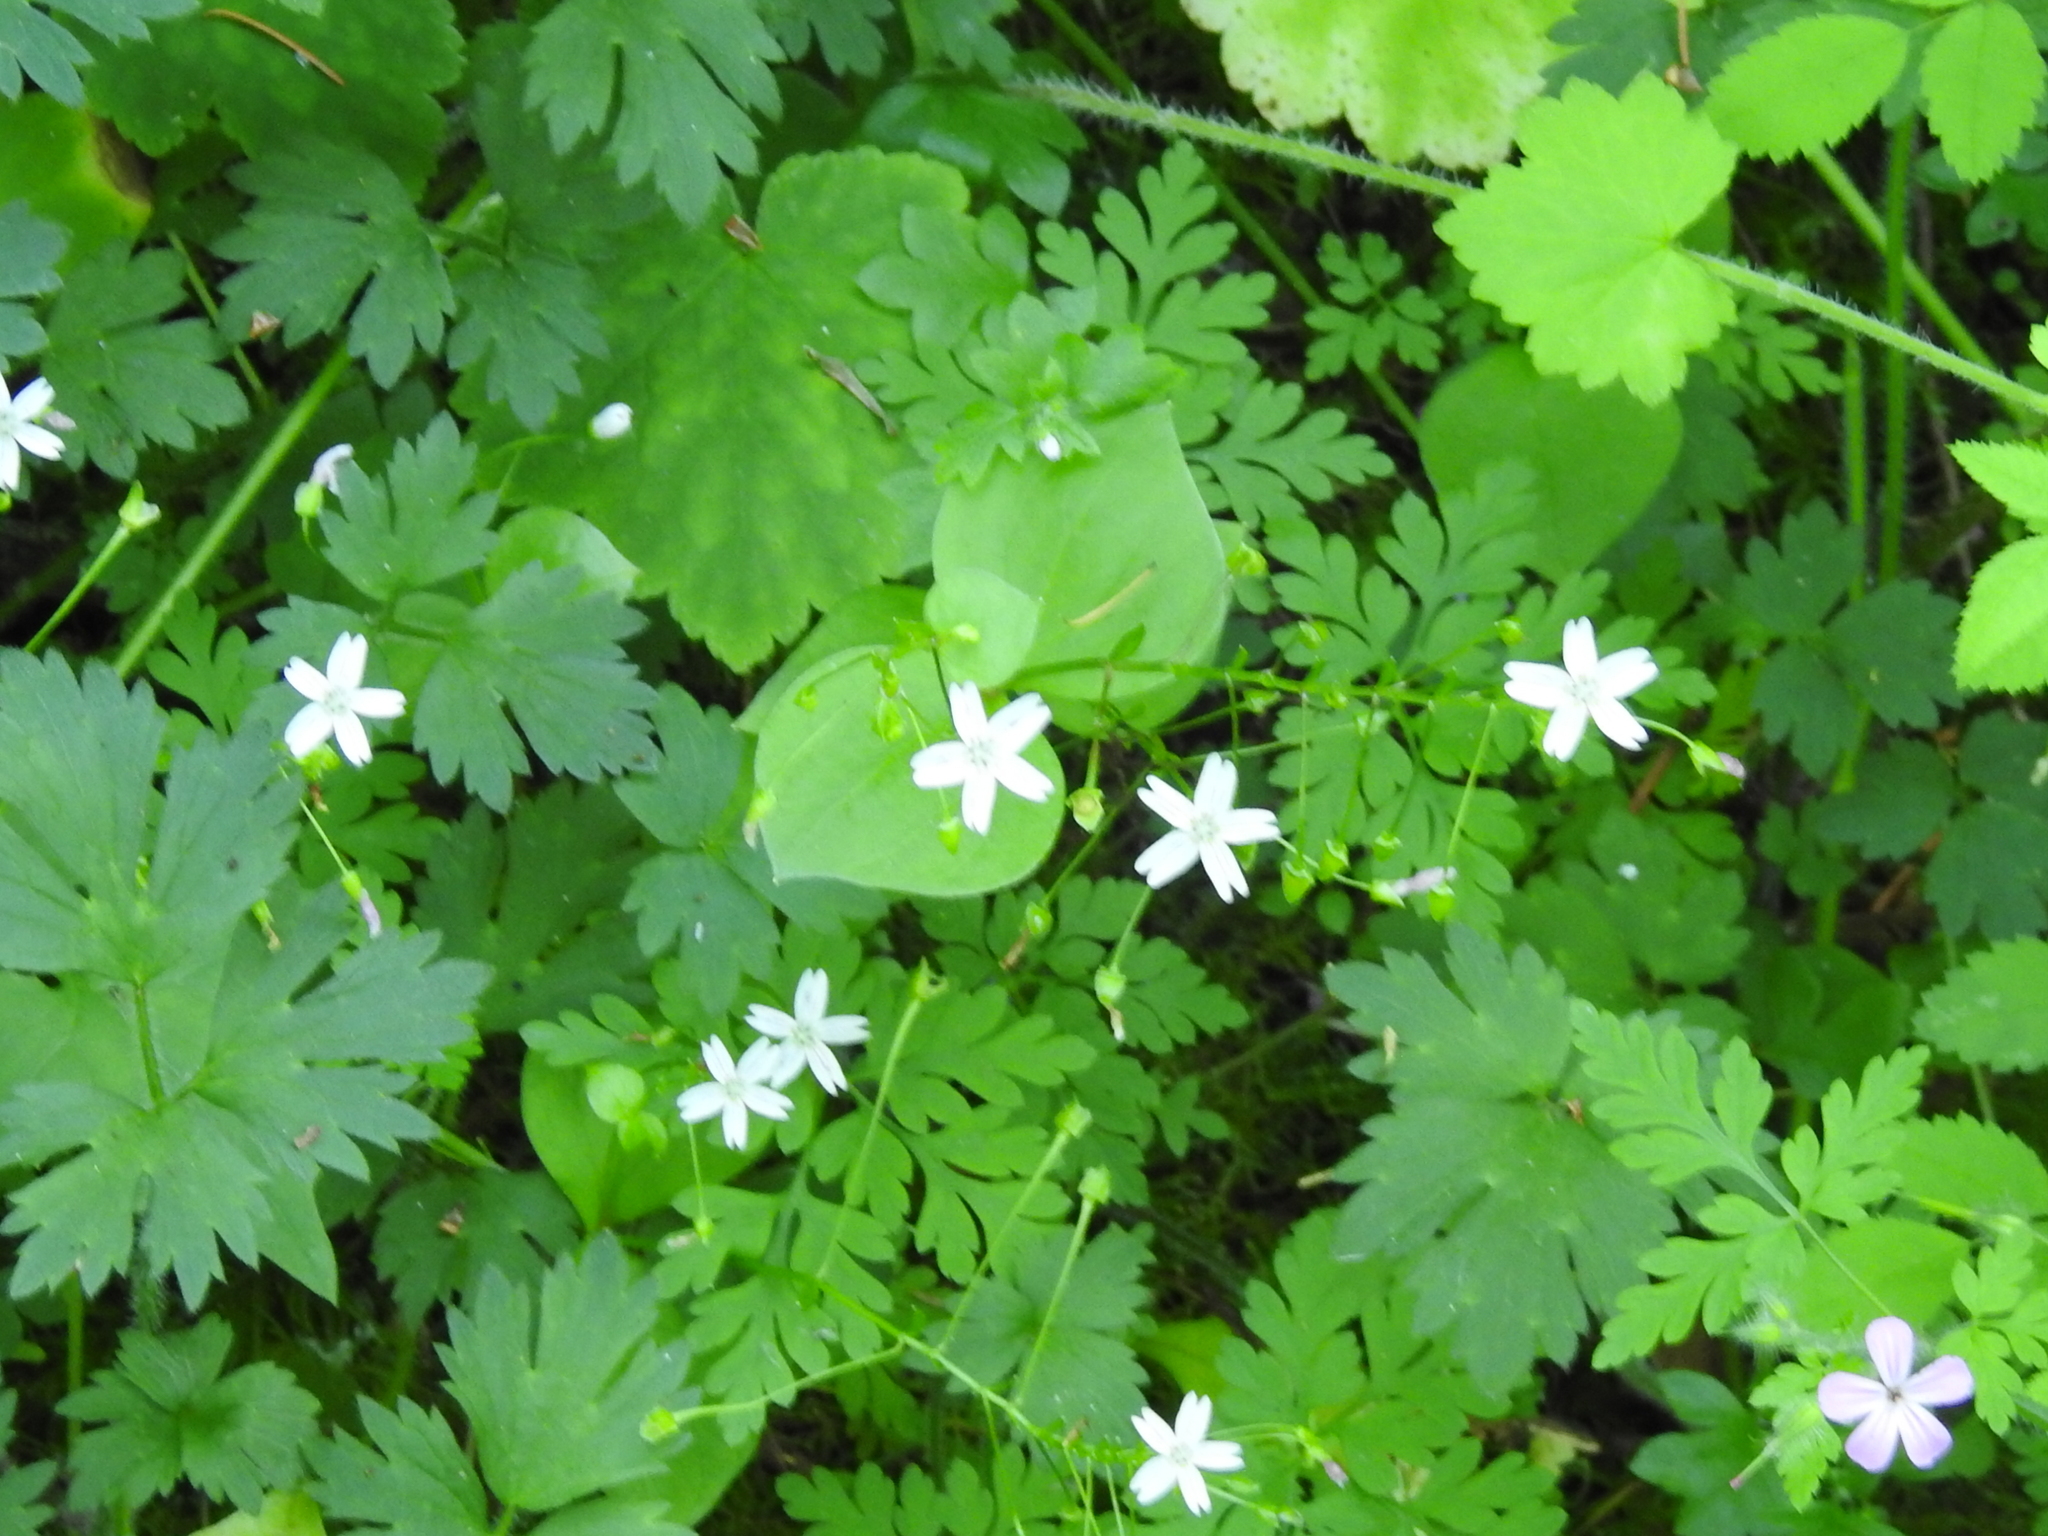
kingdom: Plantae
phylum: Tracheophyta
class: Magnoliopsida
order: Caryophyllales
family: Montiaceae
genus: Claytonia
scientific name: Claytonia sibirica
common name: Pink purslane
